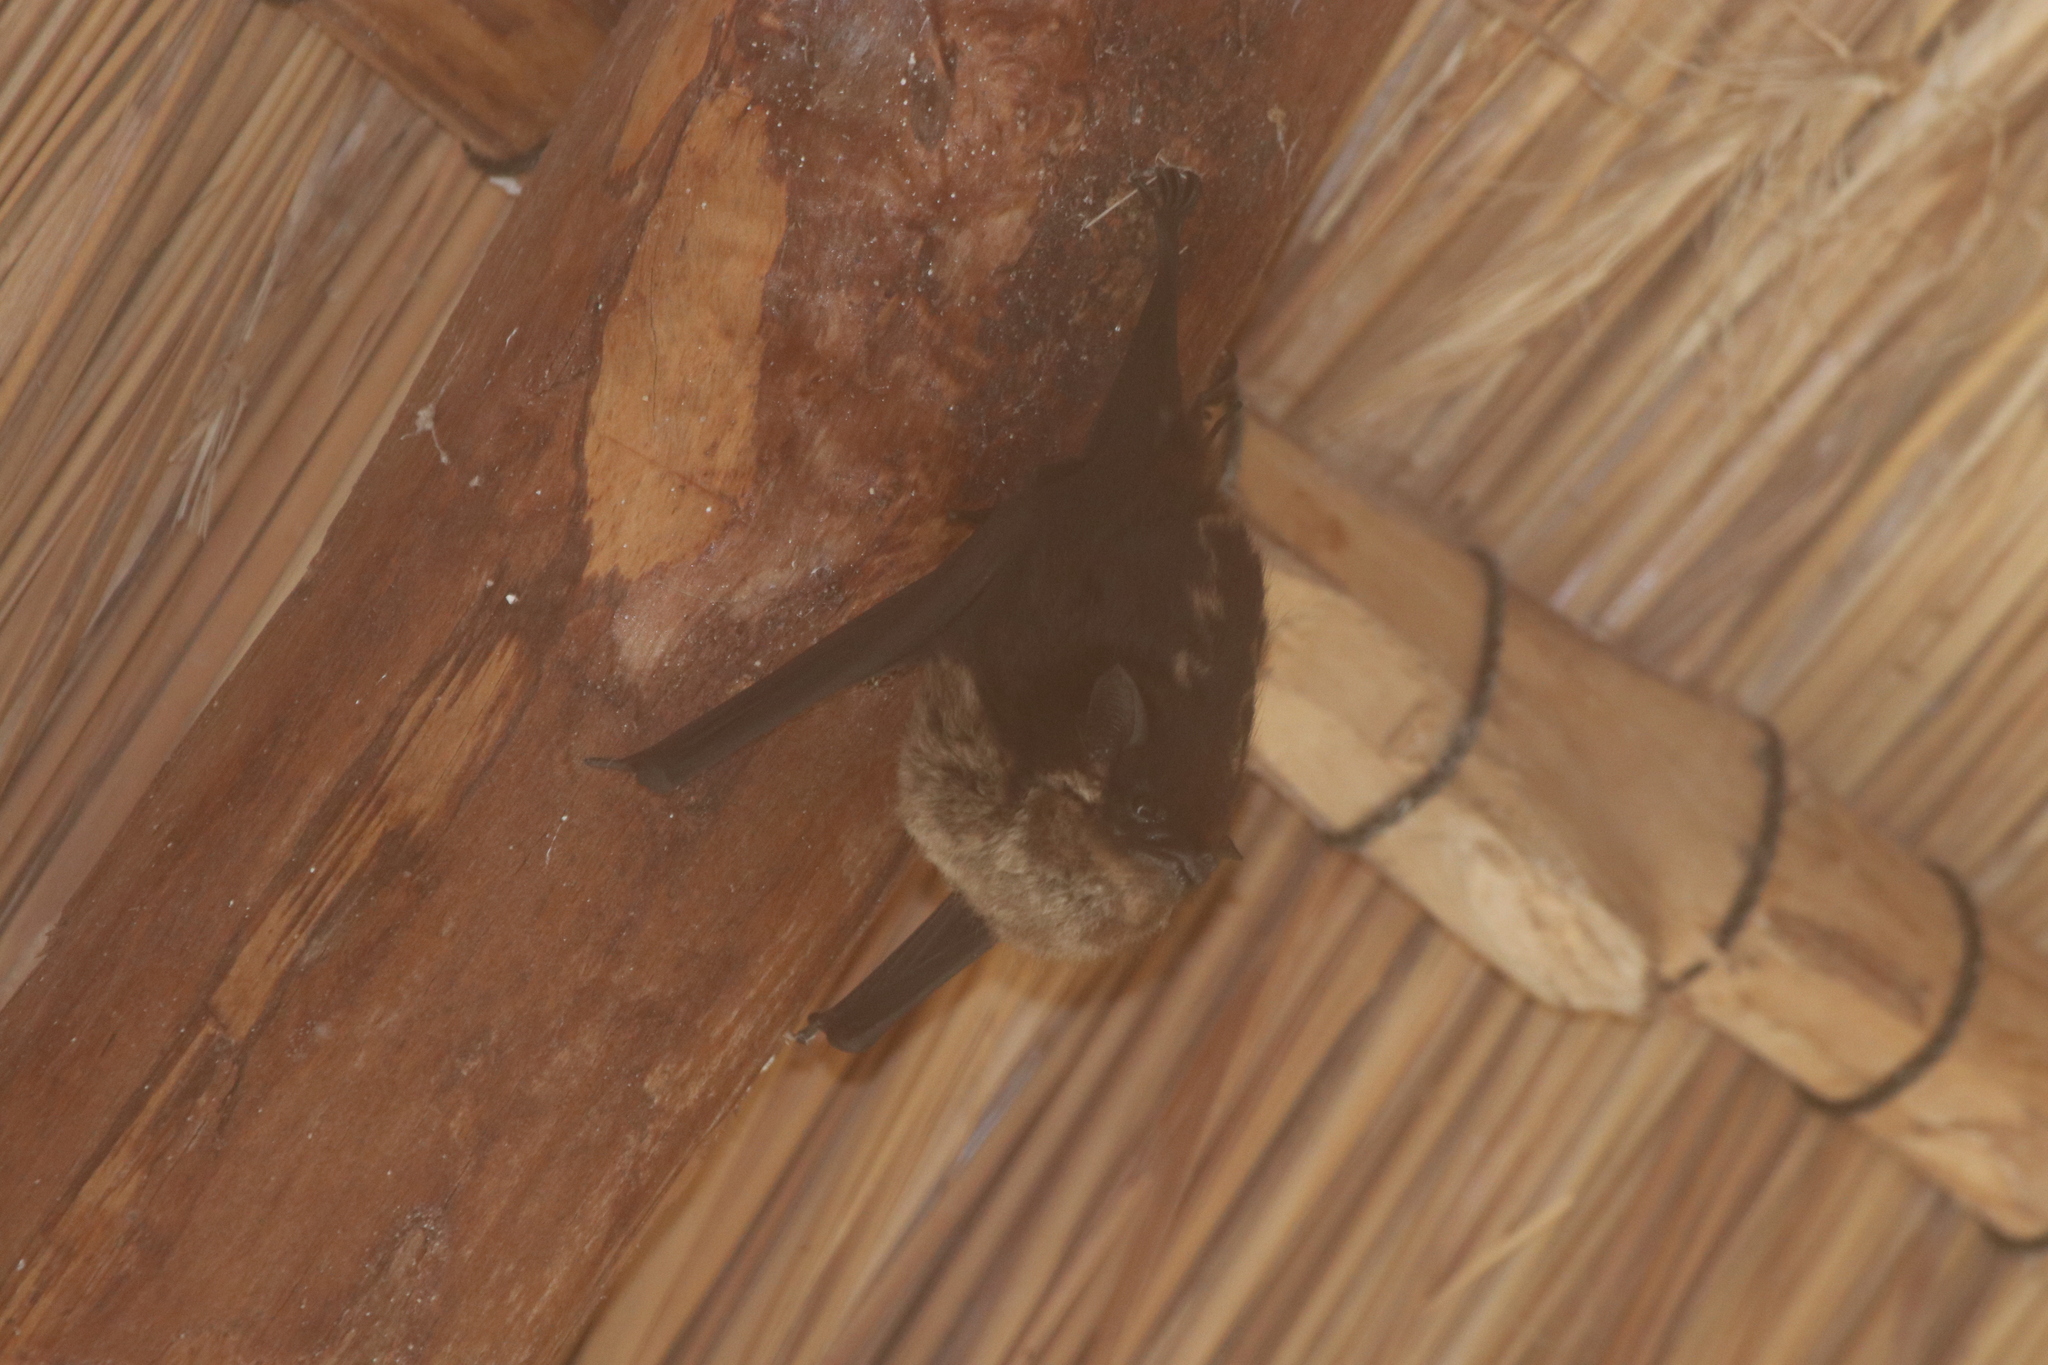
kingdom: Animalia
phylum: Chordata
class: Mammalia
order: Chiroptera
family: Emballonuridae
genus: Saccopteryx
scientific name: Saccopteryx bilineata
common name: Greater sac-winged bat
